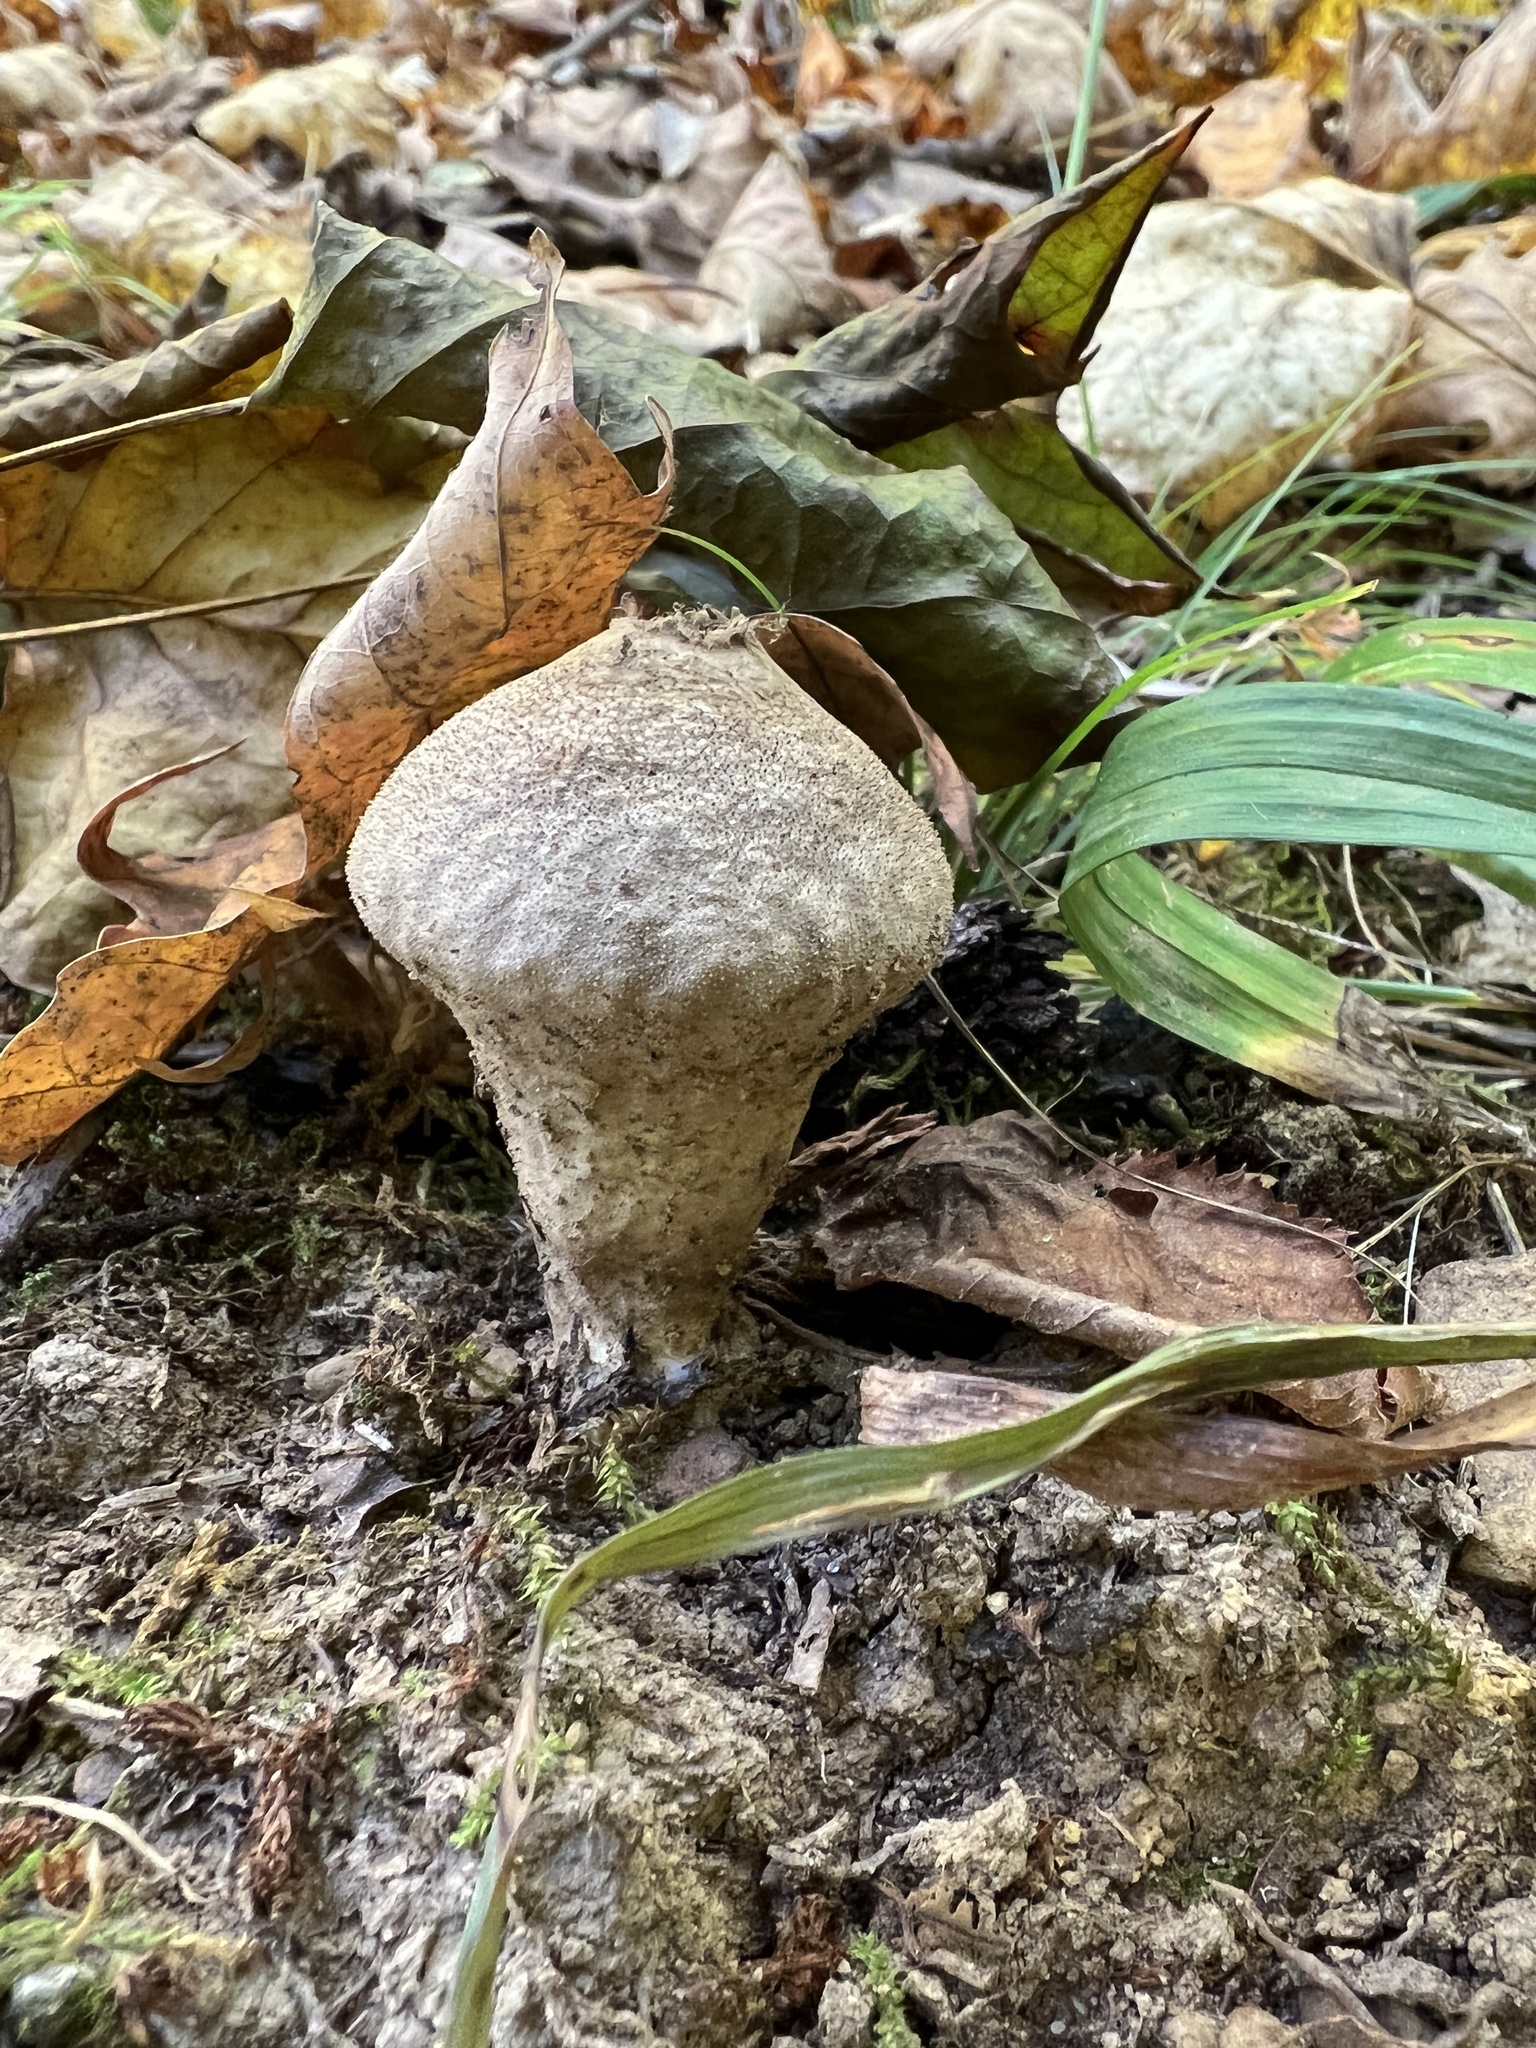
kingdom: Fungi
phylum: Basidiomycota
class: Agaricomycetes
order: Agaricales
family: Lycoperdaceae
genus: Lycoperdon
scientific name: Lycoperdon perlatum
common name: Common puffball
